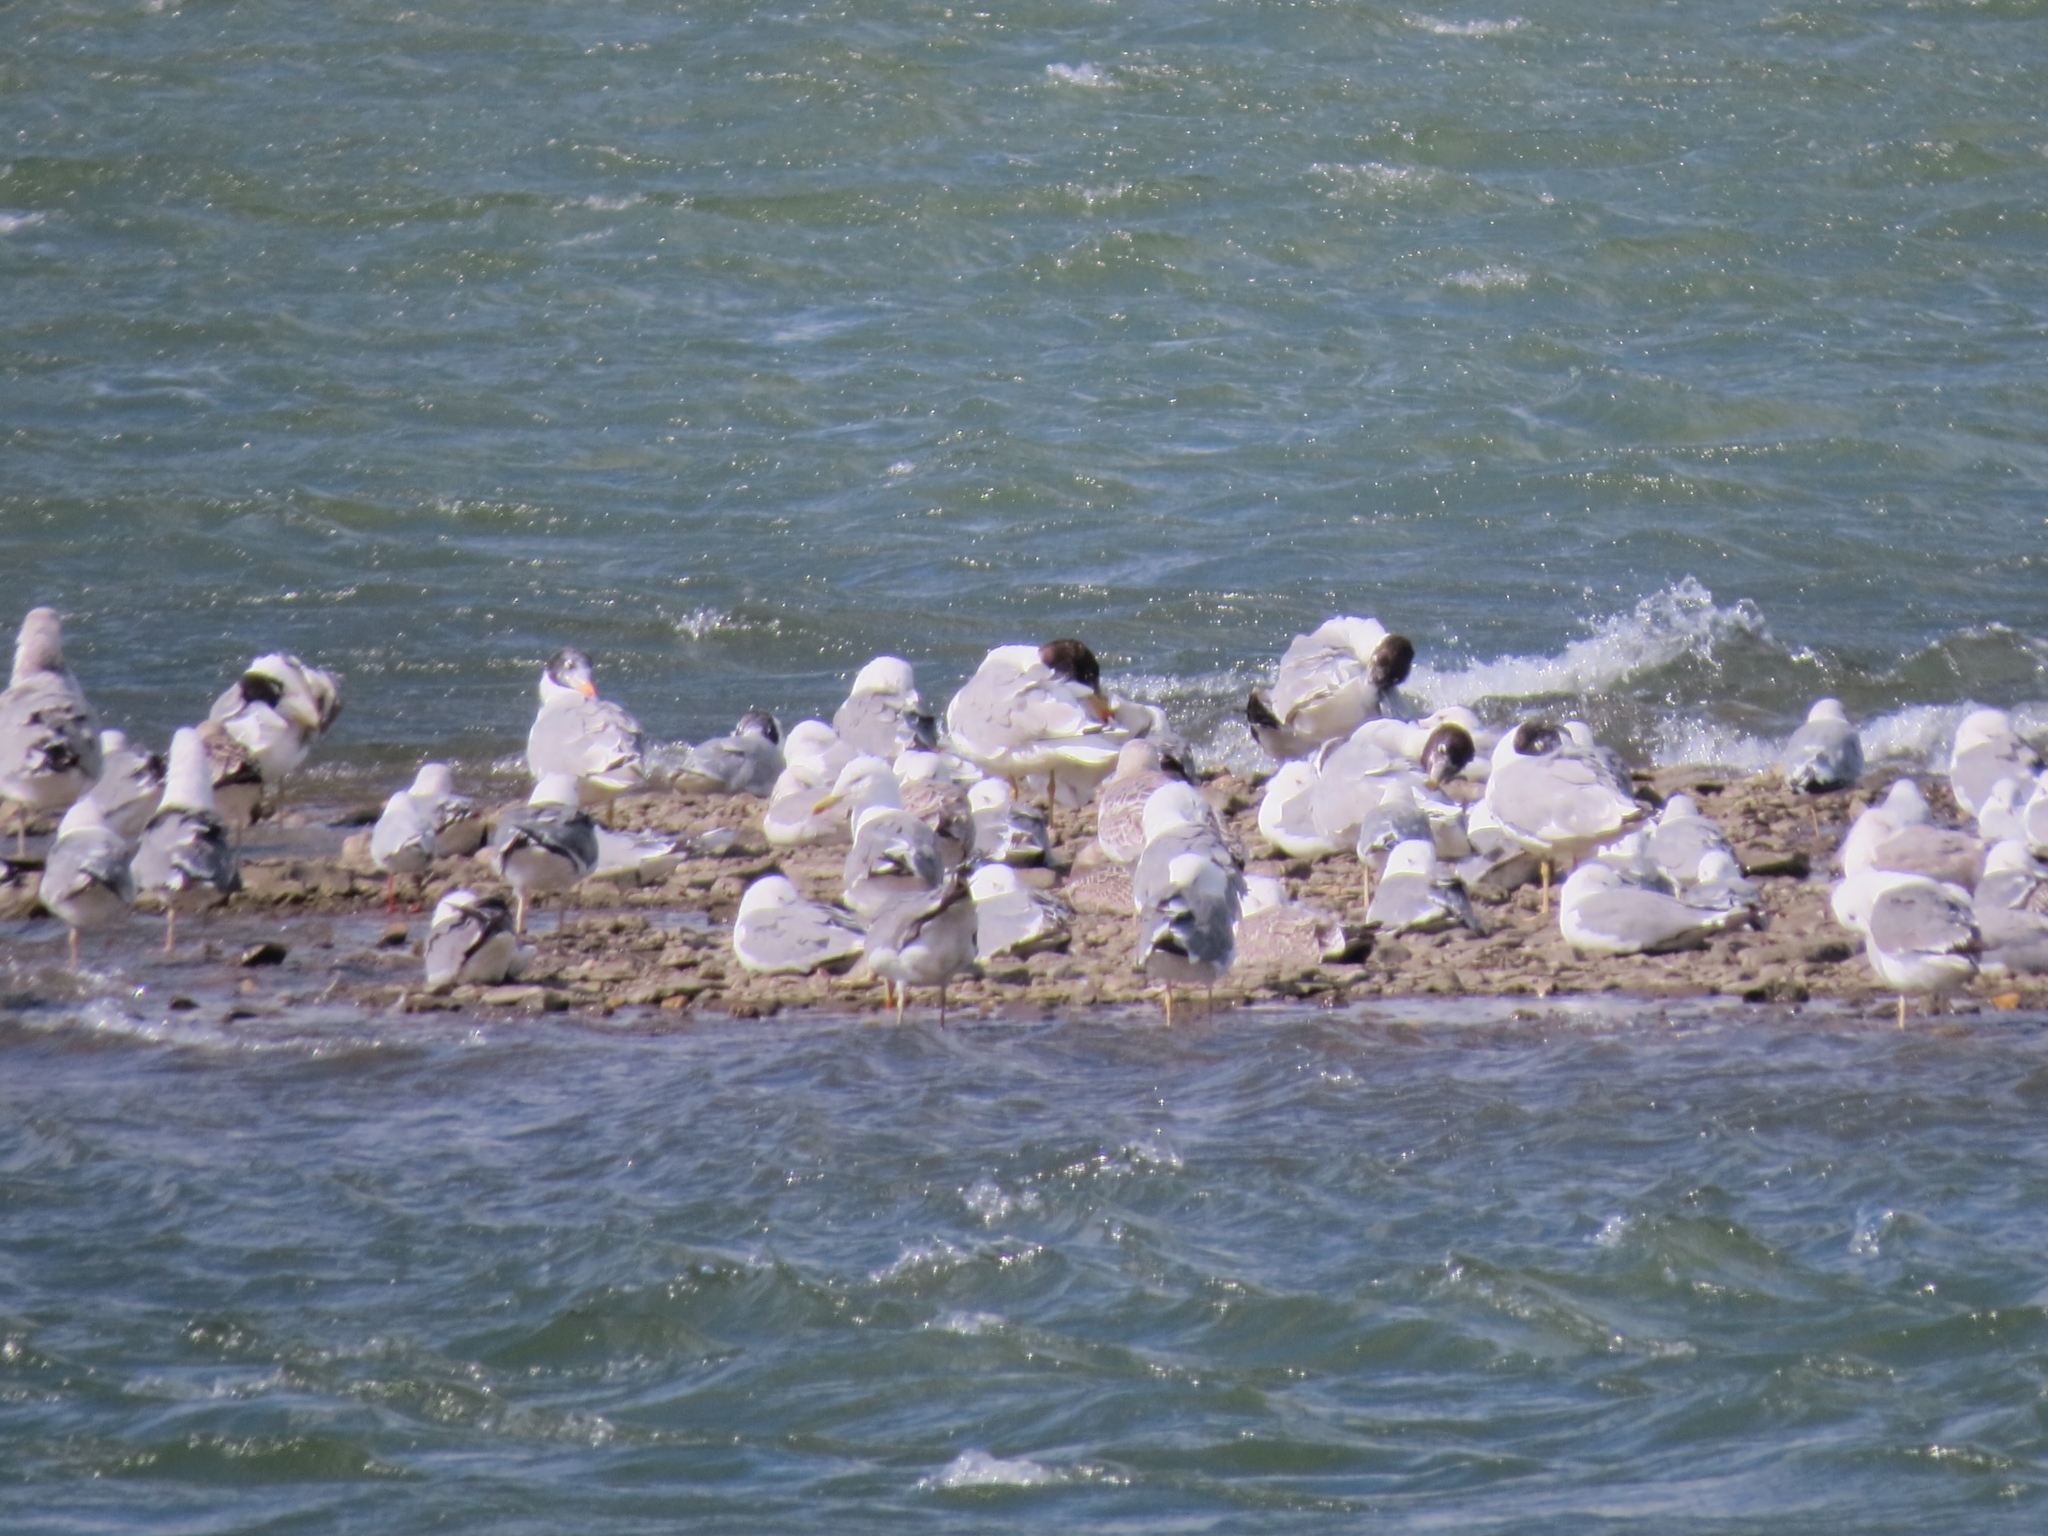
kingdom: Animalia
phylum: Chordata
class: Aves
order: Charadriiformes
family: Laridae
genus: Ichthyaetus
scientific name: Ichthyaetus ichthyaetus
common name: Pallas's gull
